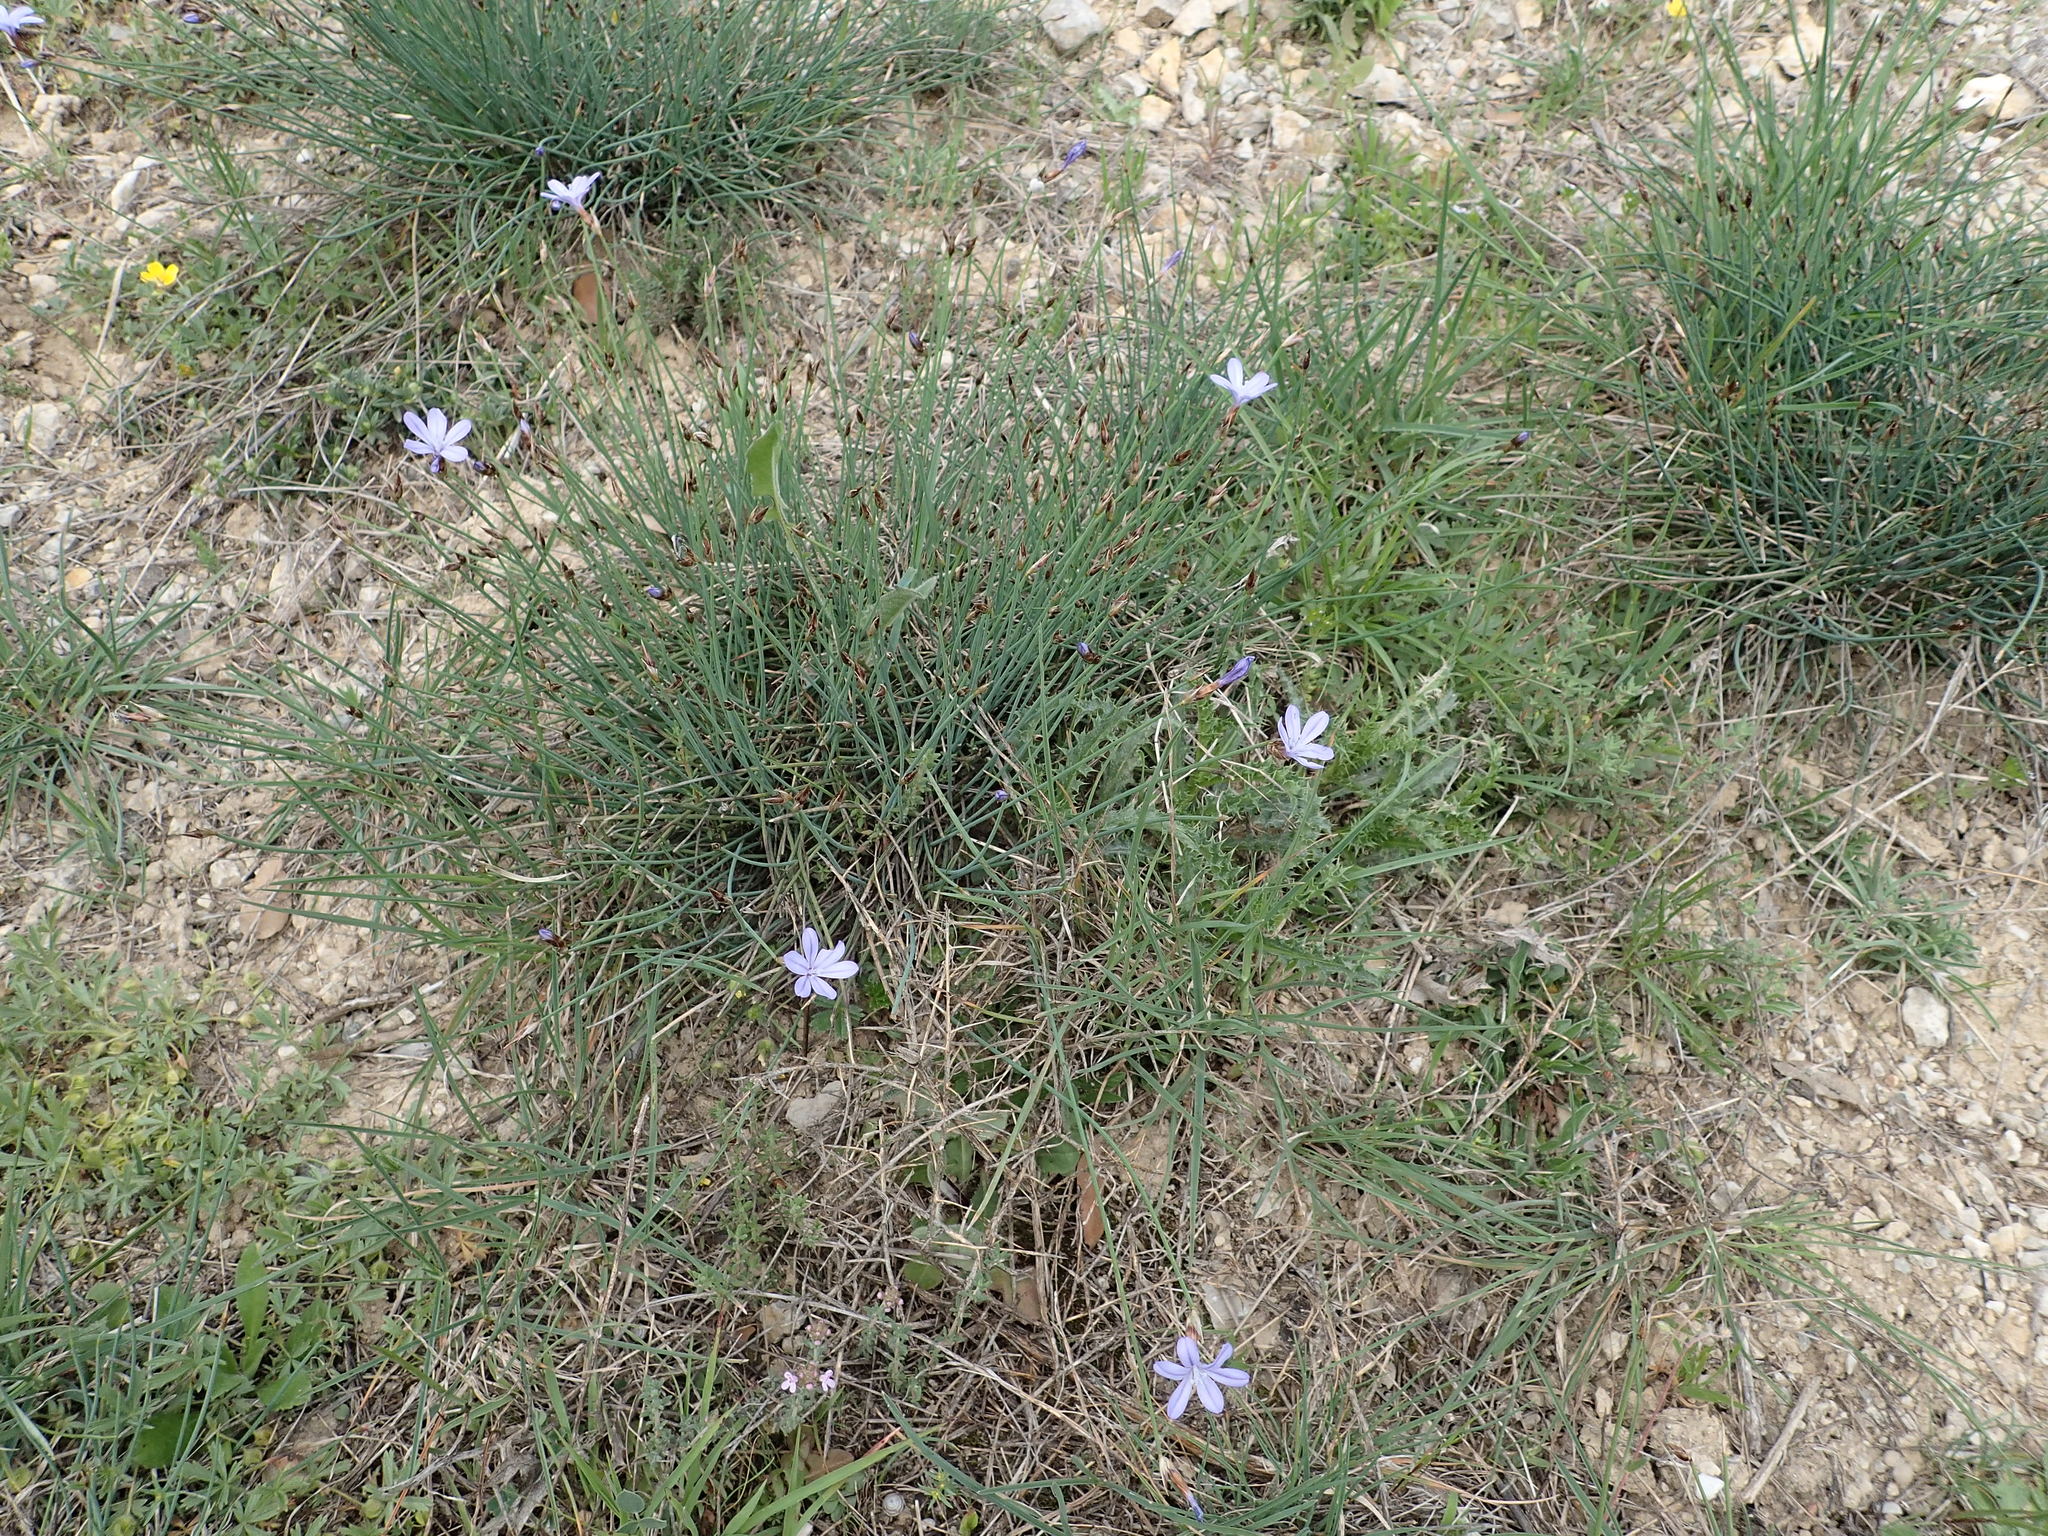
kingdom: Plantae
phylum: Tracheophyta
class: Liliopsida
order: Asparagales
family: Asparagaceae
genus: Aphyllanthes
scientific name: Aphyllanthes monspeliensis
